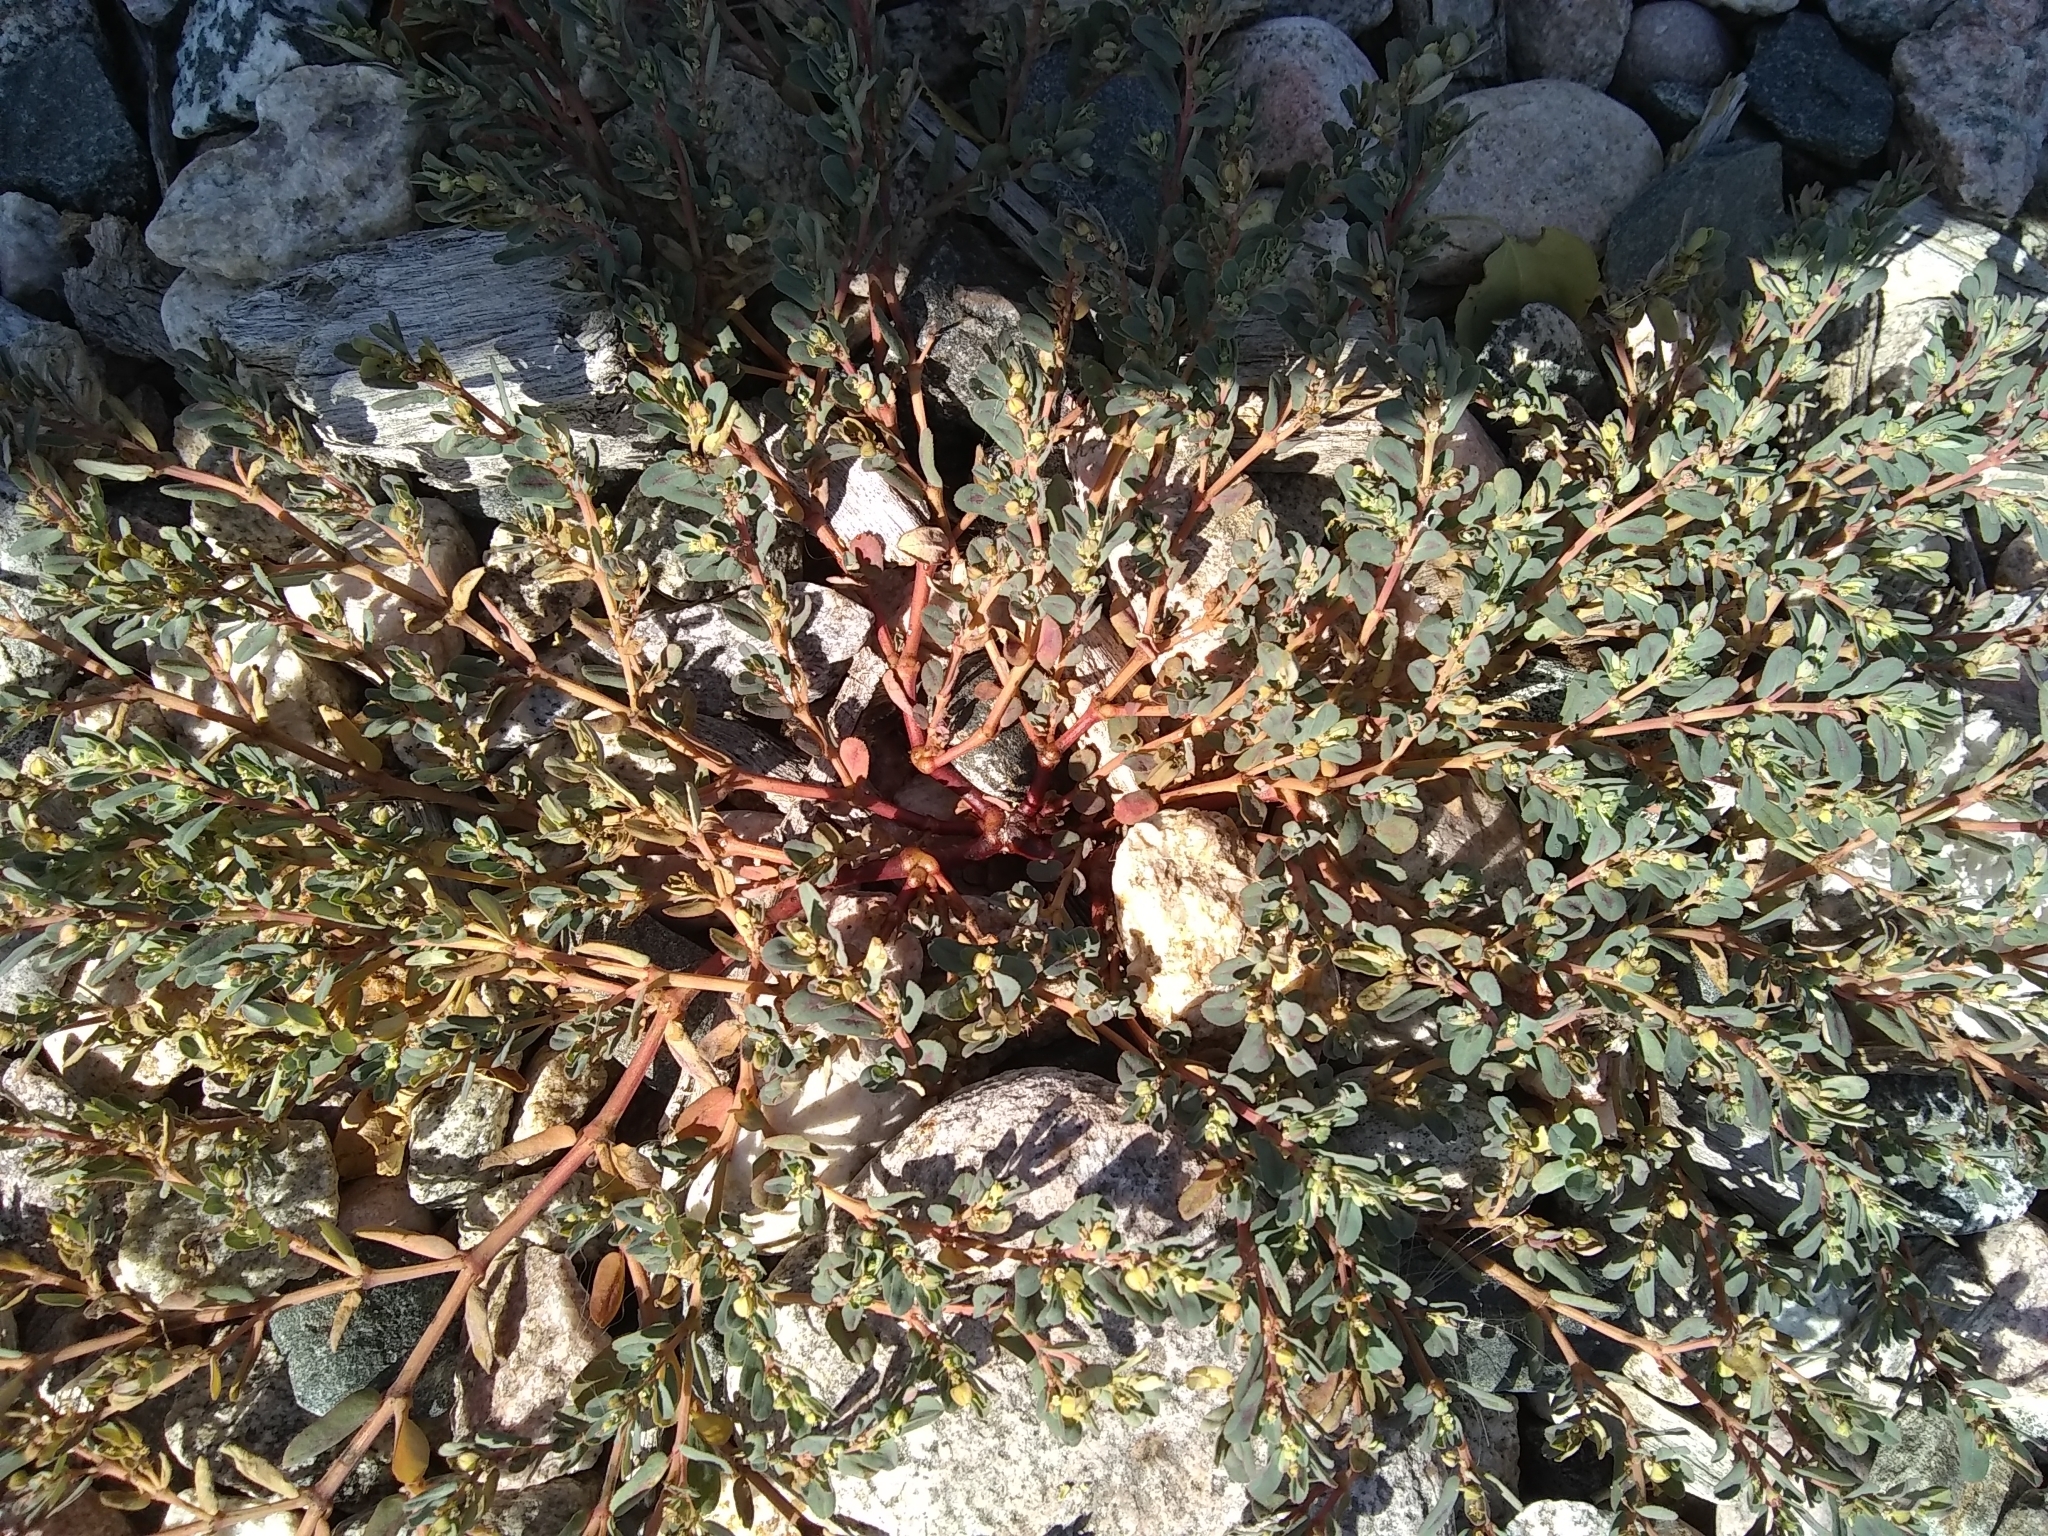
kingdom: Plantae
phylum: Tracheophyta
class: Magnoliopsida
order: Malpighiales
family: Euphorbiaceae
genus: Euphorbia
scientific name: Euphorbia serpillifolia
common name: Thyme-leaf spurge
